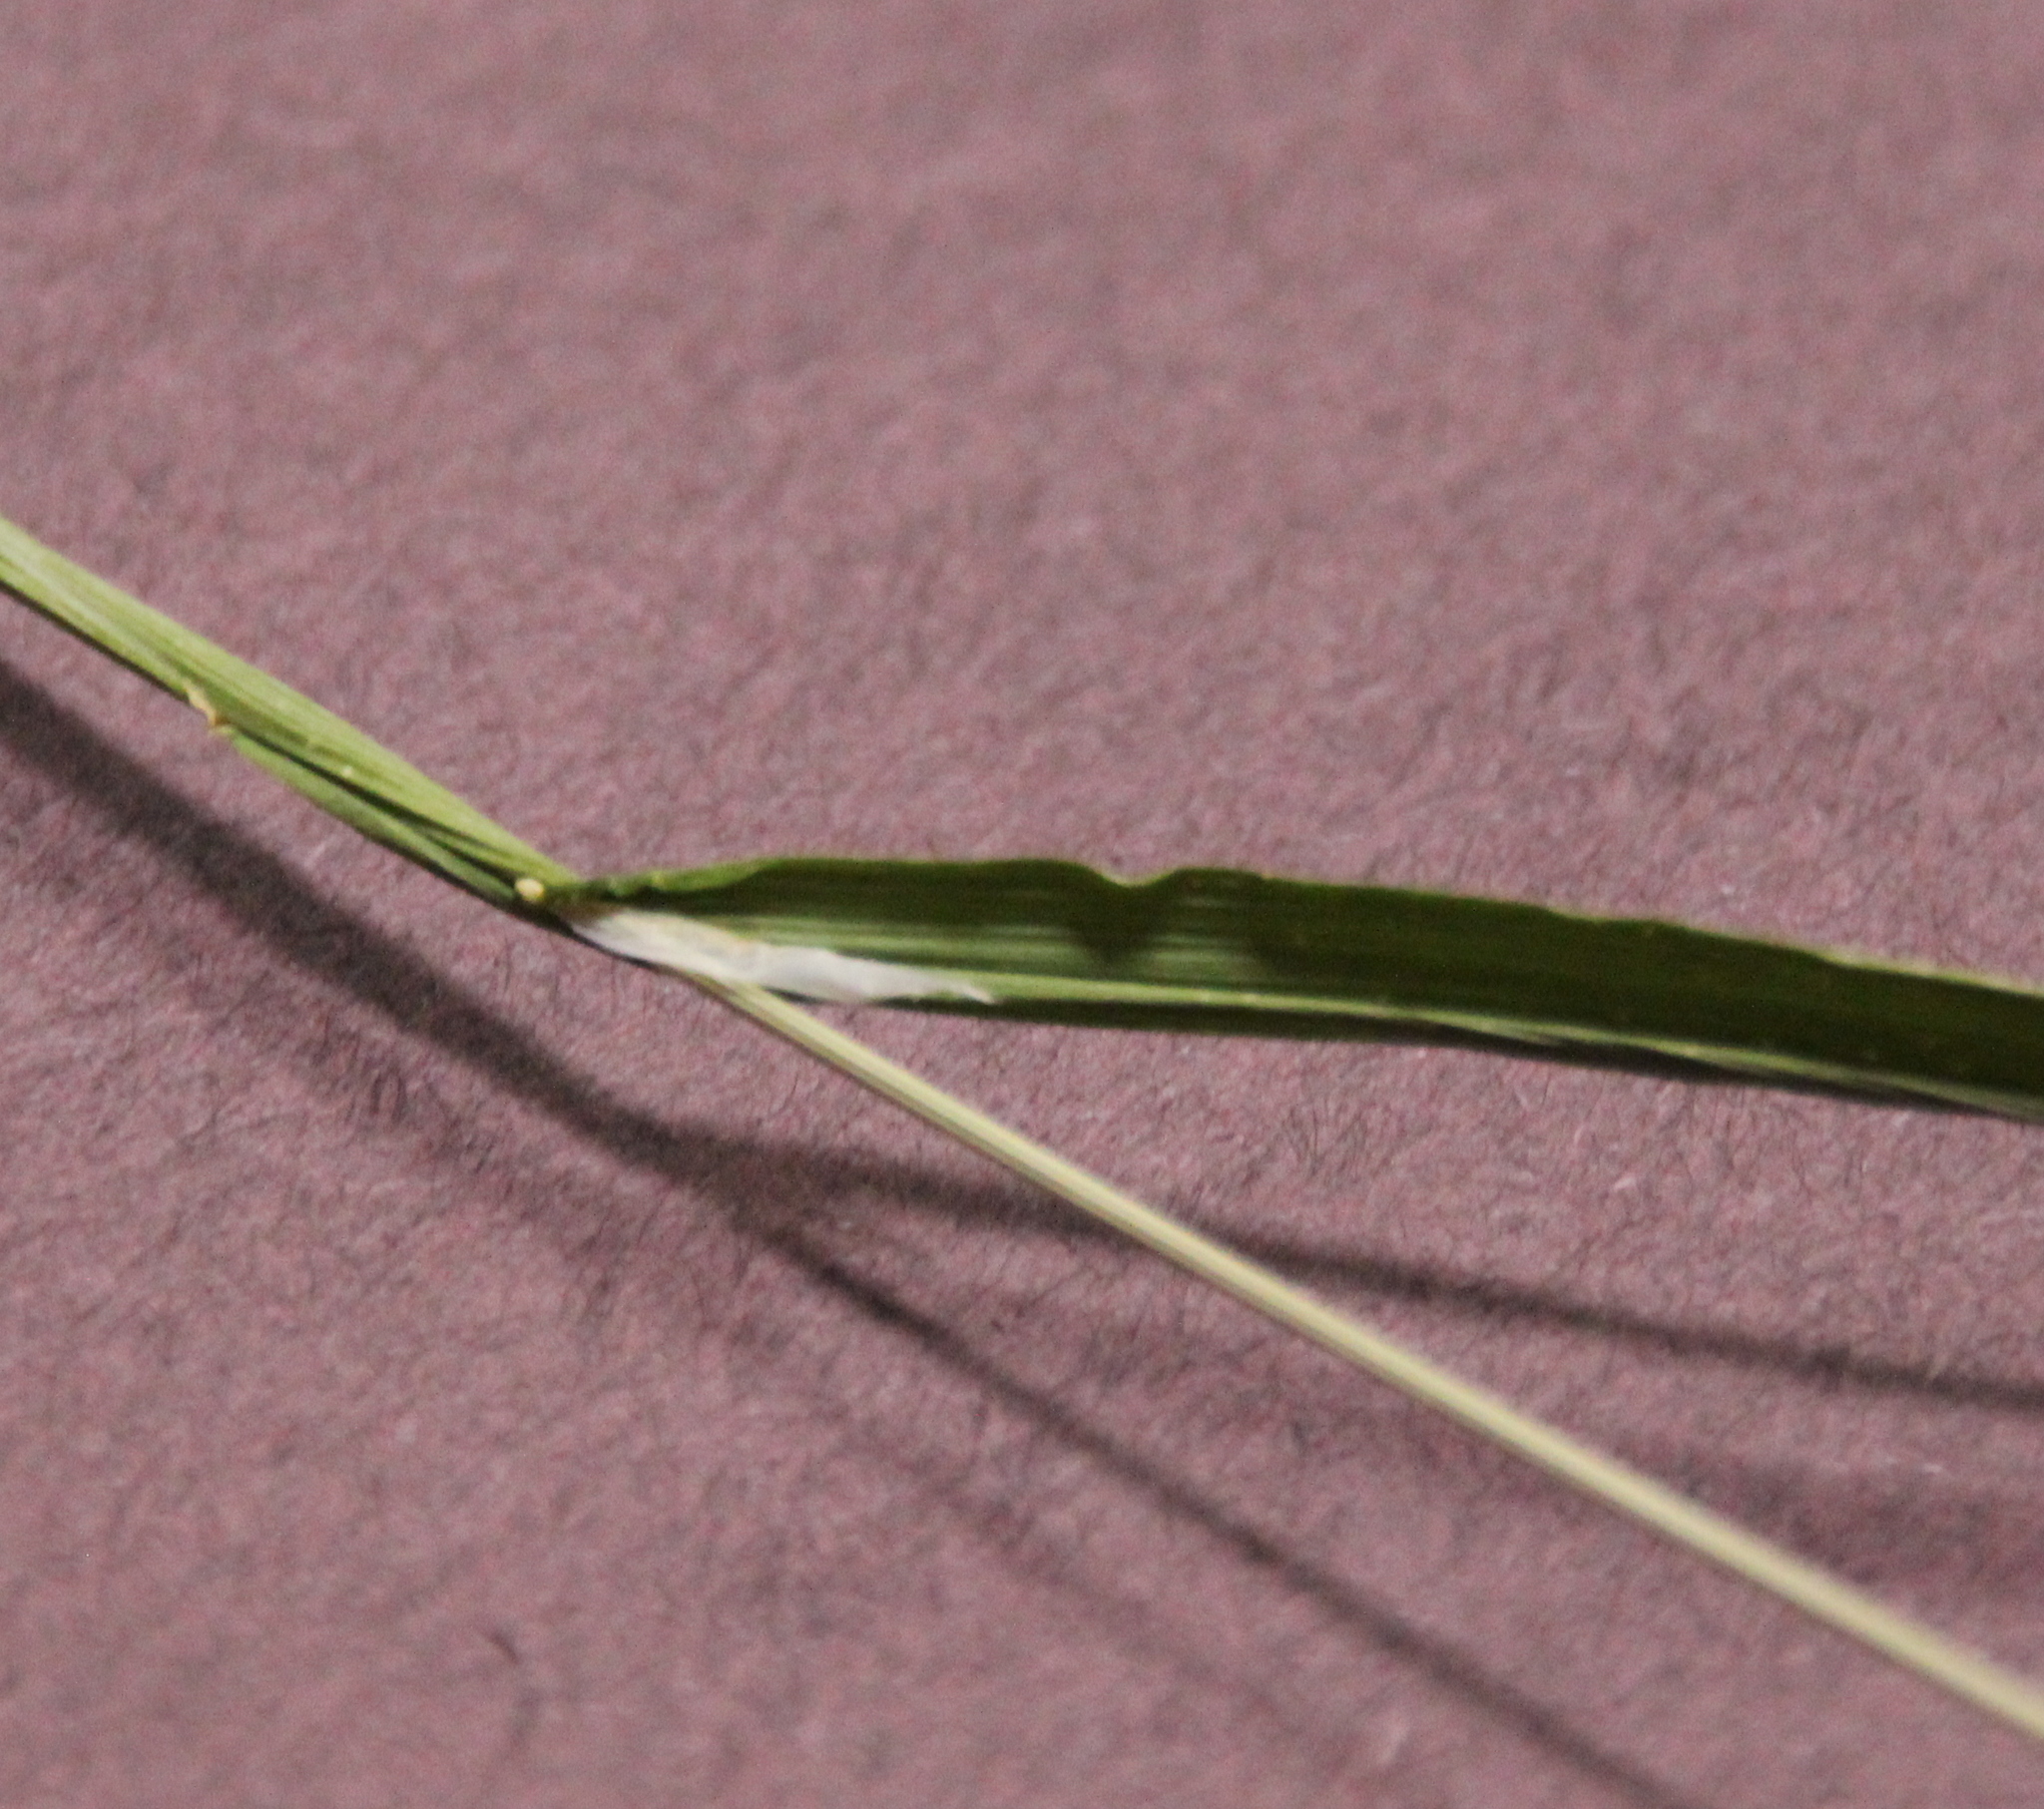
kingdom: Plantae
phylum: Tracheophyta
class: Liliopsida
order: Poales
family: Poaceae
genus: Cynosurus
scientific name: Cynosurus echinatus
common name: Rough dog's-tail
